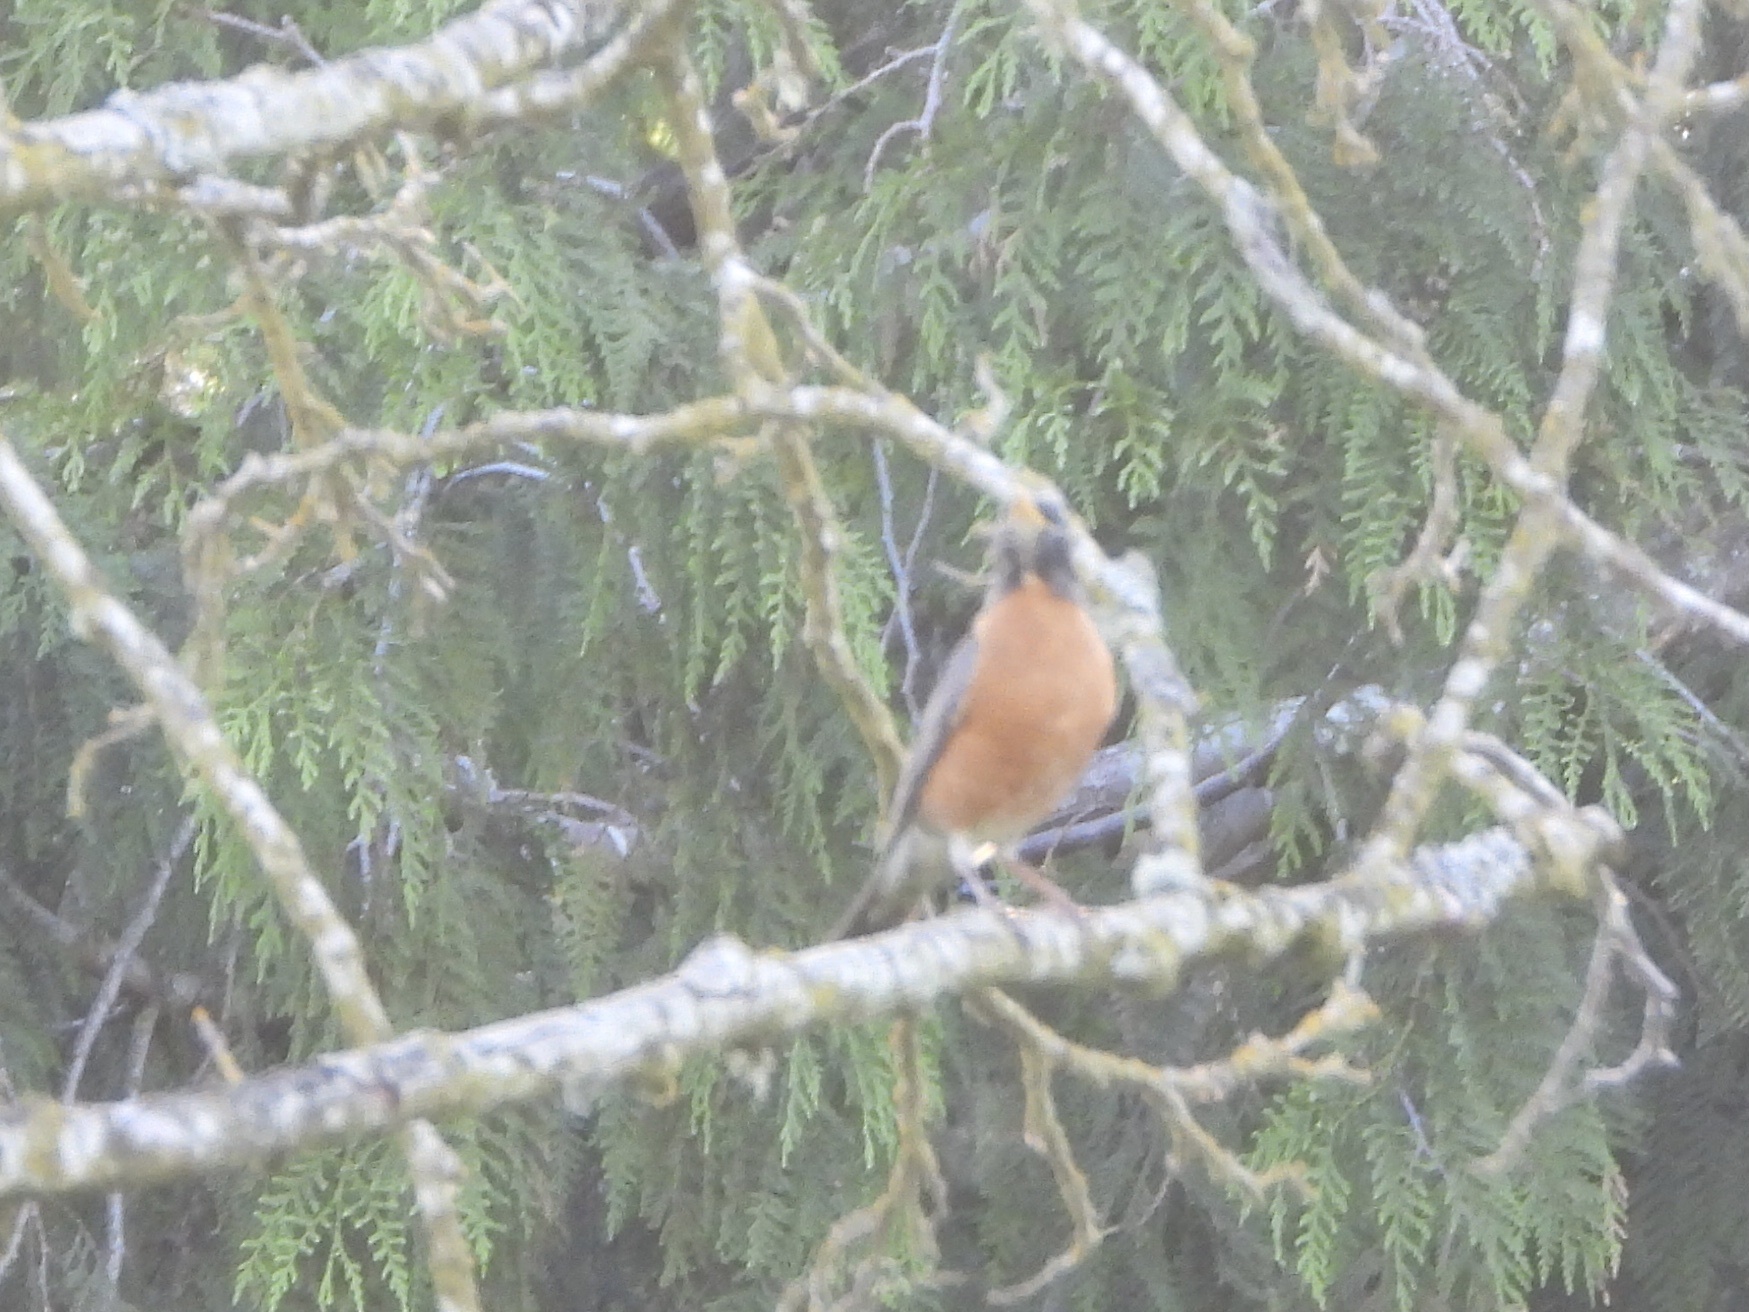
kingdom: Animalia
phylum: Chordata
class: Aves
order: Passeriformes
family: Turdidae
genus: Turdus
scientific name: Turdus migratorius
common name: American robin
